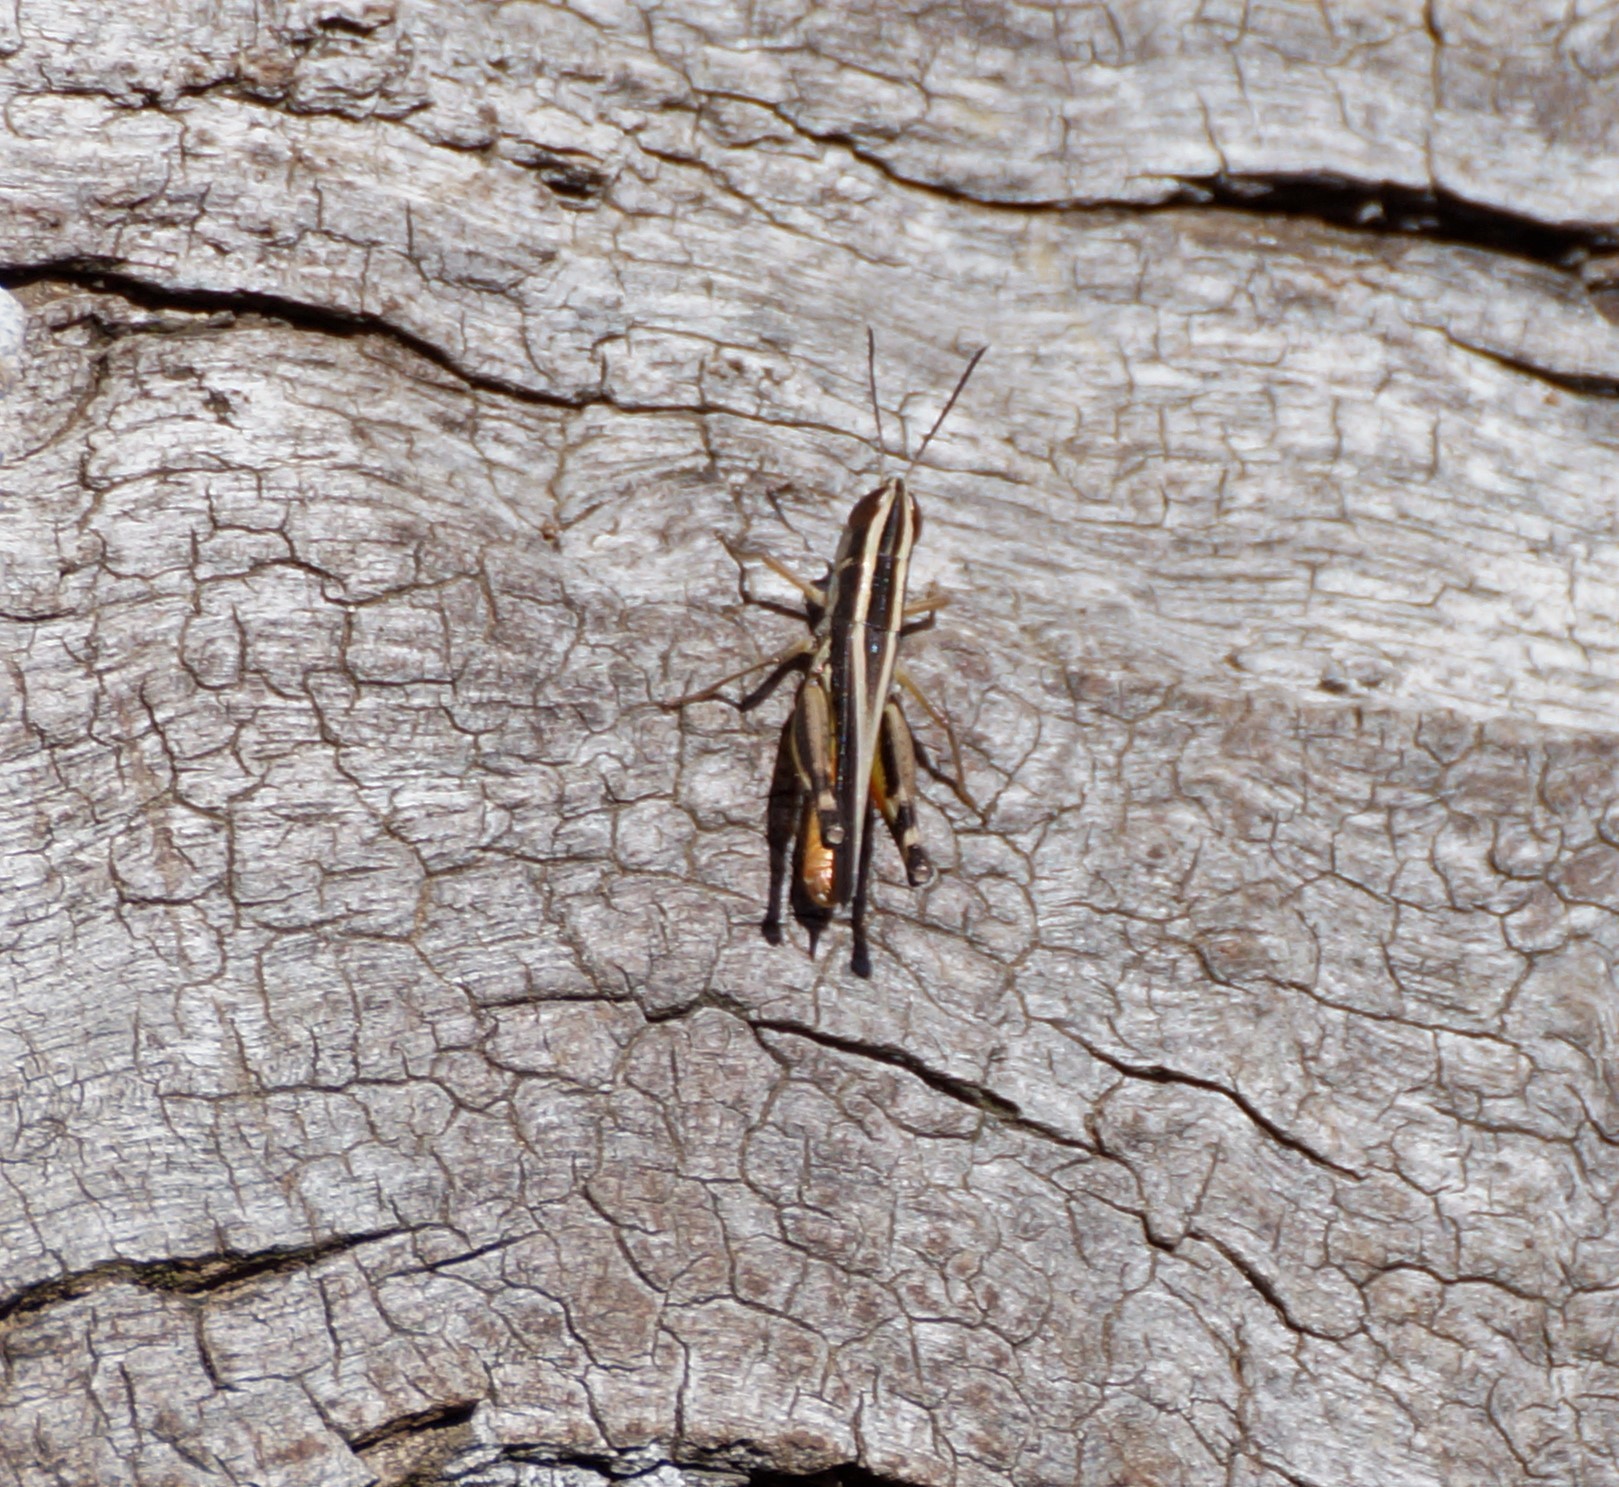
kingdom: Animalia
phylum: Arthropoda
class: Insecta
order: Orthoptera
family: Acrididae
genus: Macrotona
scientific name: Macrotona australis
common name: Common macrotona
